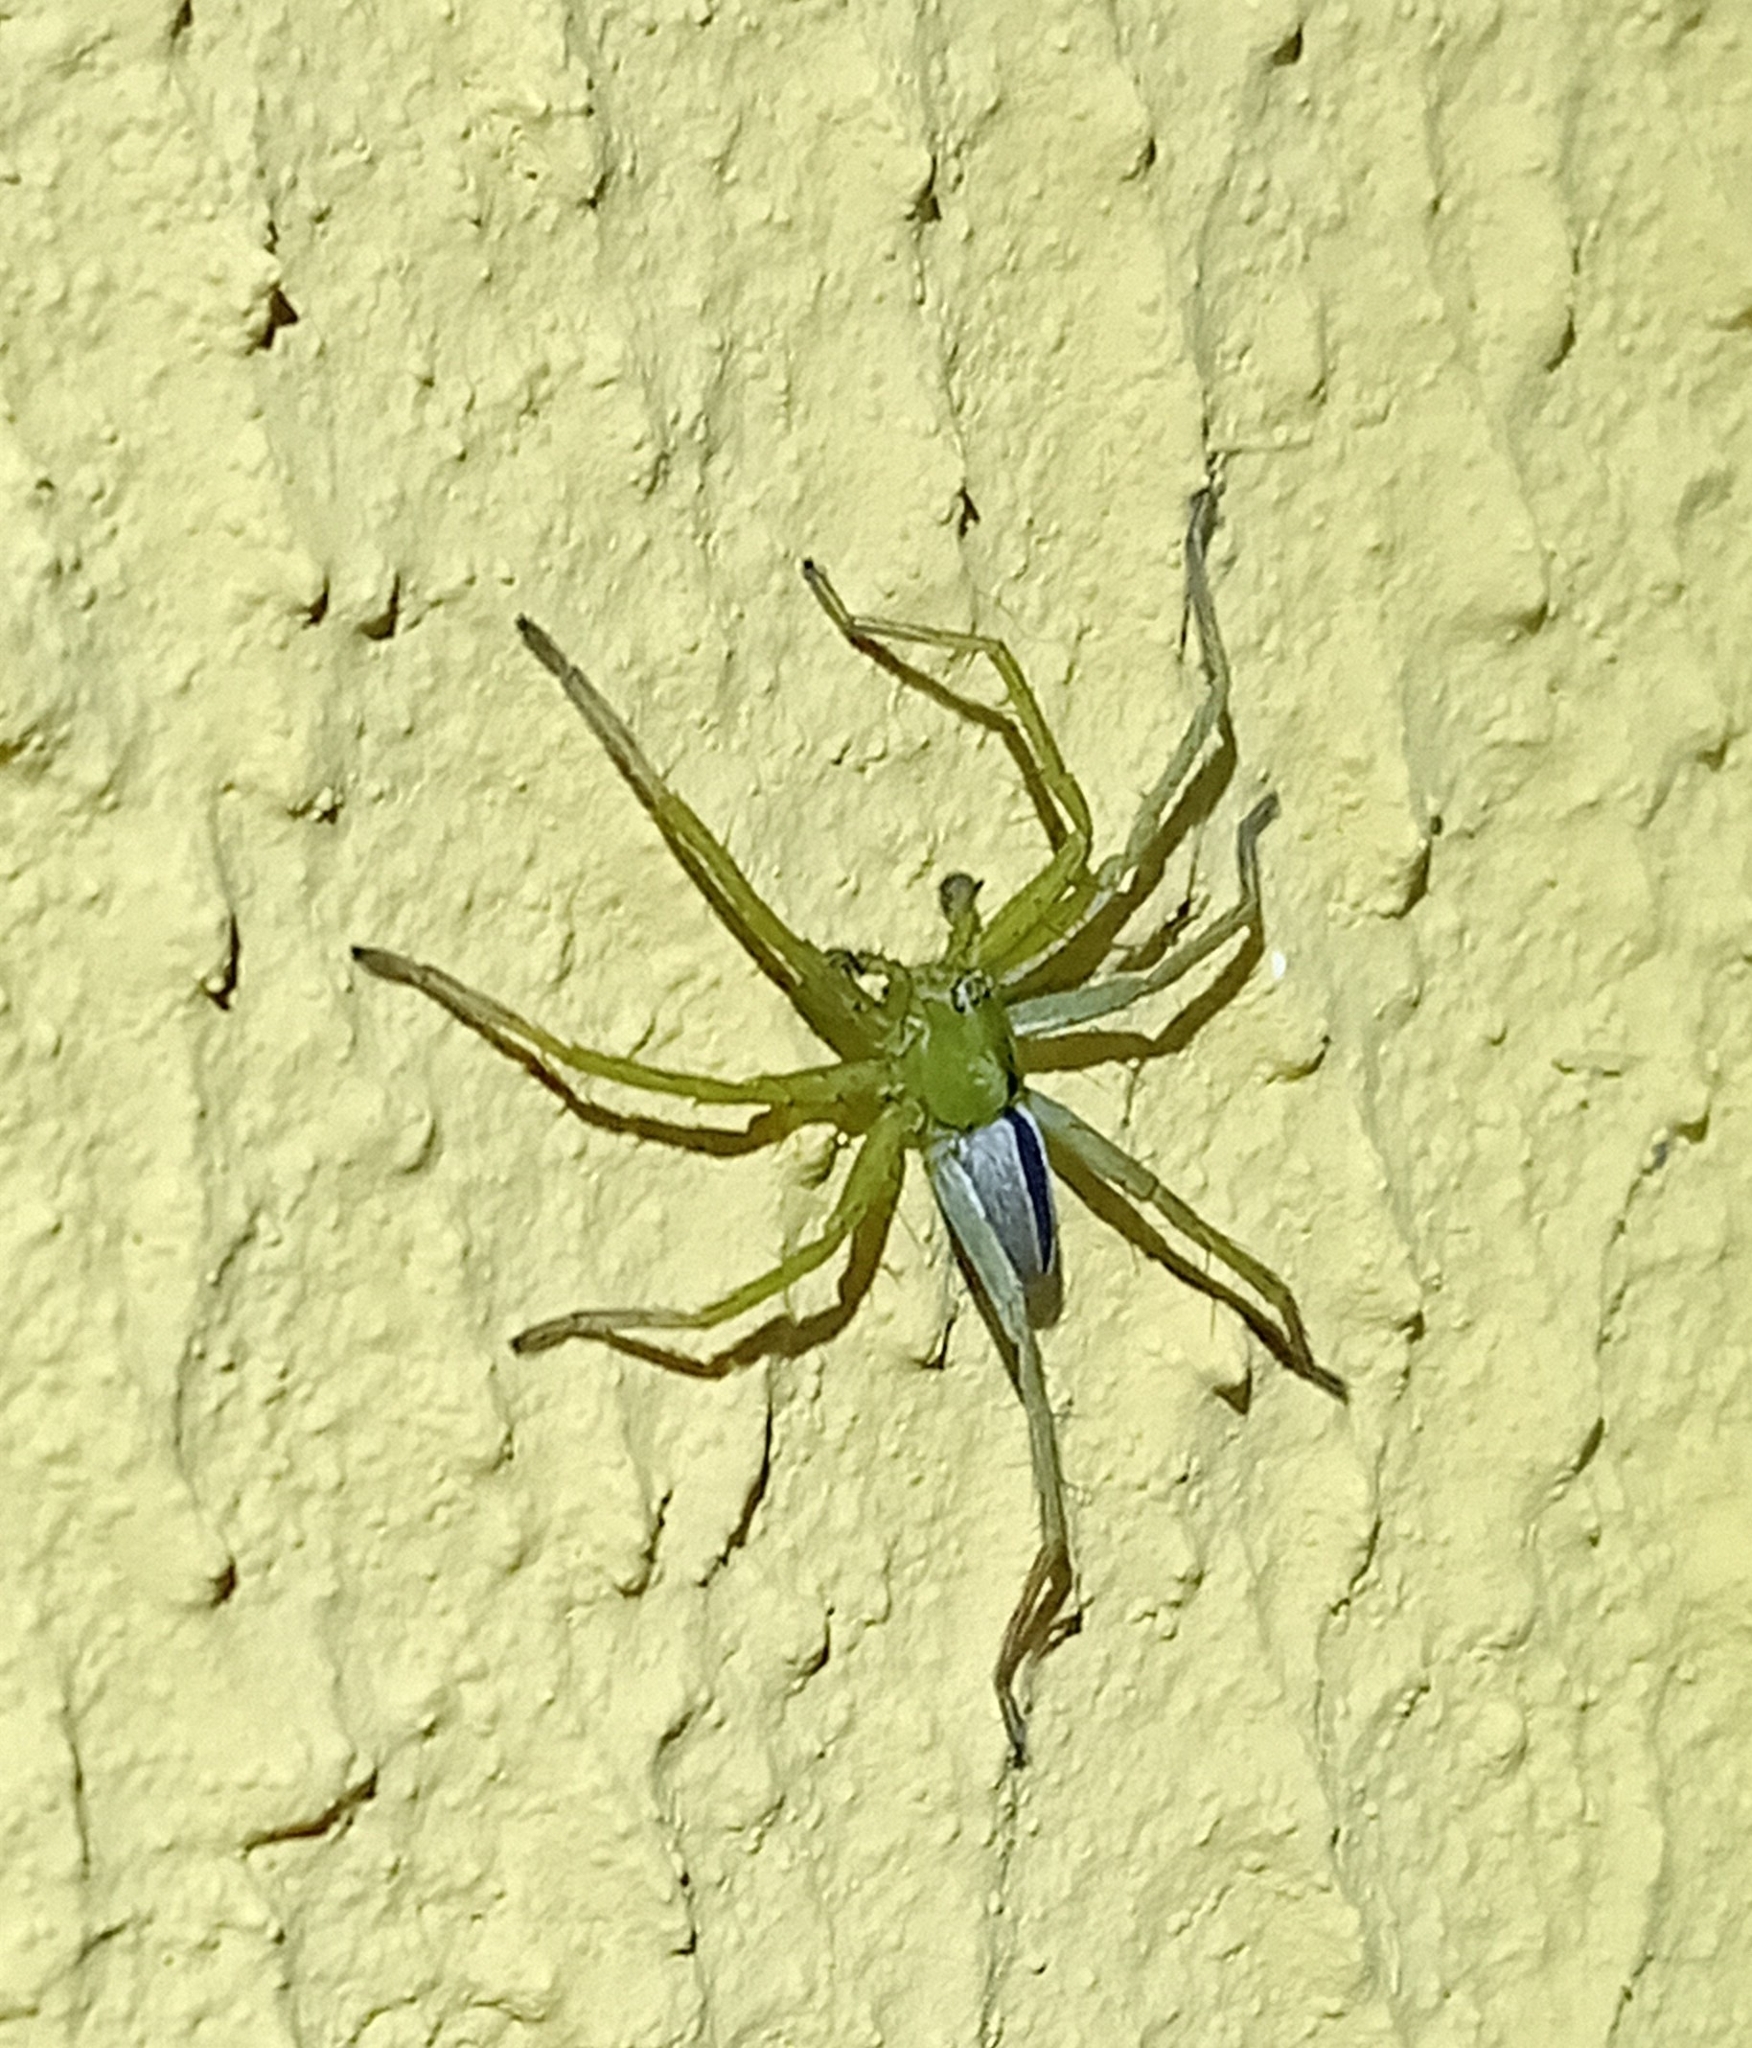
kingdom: Animalia
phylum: Arthropoda
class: Arachnida
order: Araneae
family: Sparassidae
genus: Micrommata
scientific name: Micrommata ligurina
